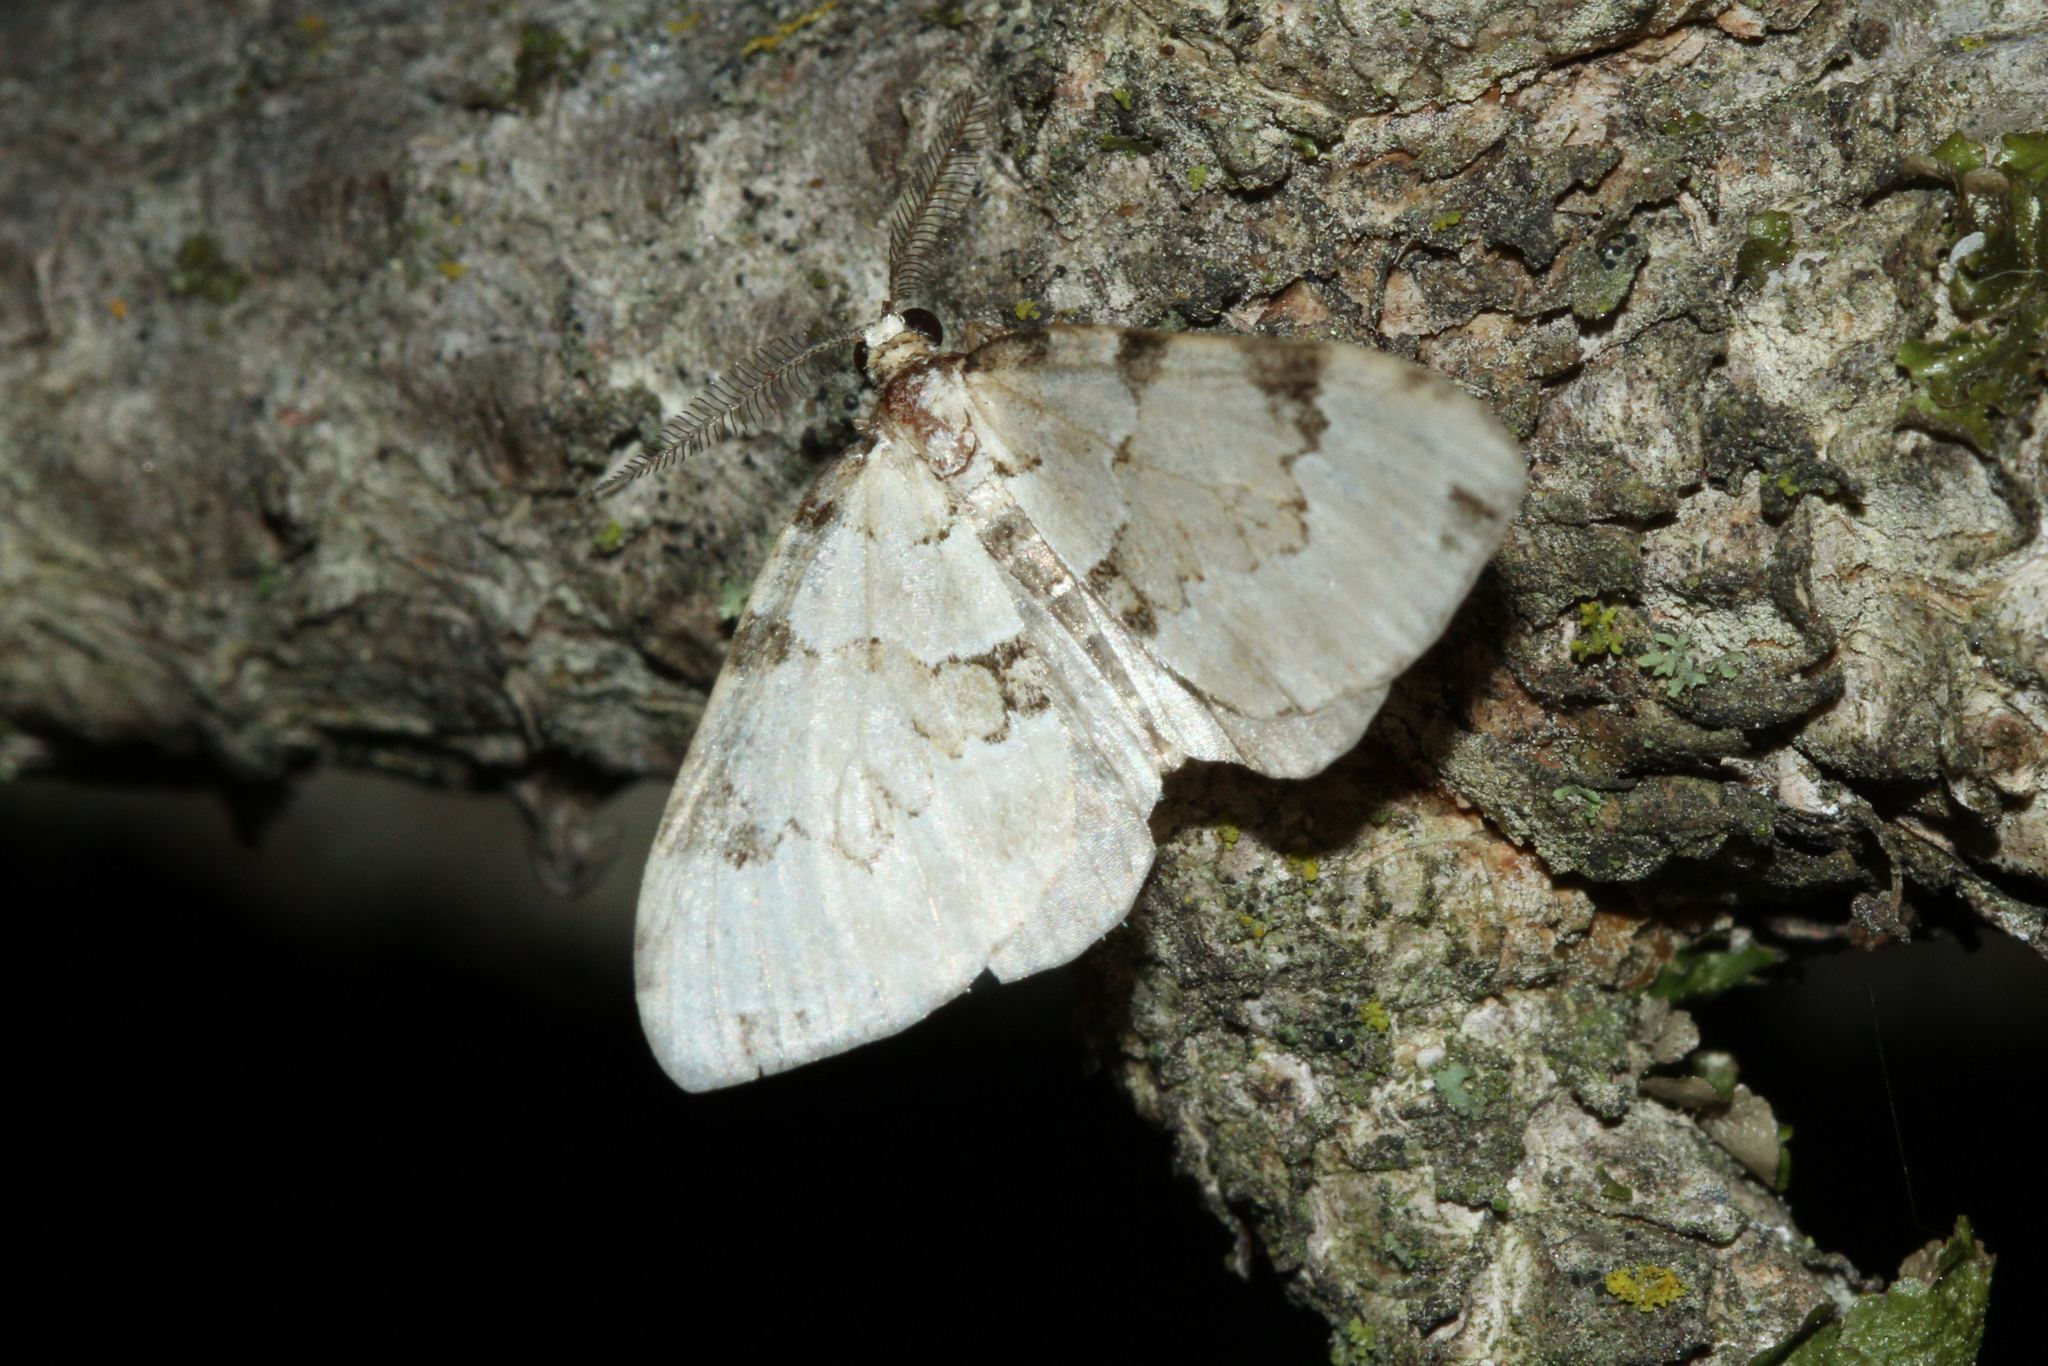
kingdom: Animalia
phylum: Arthropoda
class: Insecta
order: Lepidoptera
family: Geometridae
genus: Colostygia
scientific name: Colostygia pectinataria
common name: Green carpet
